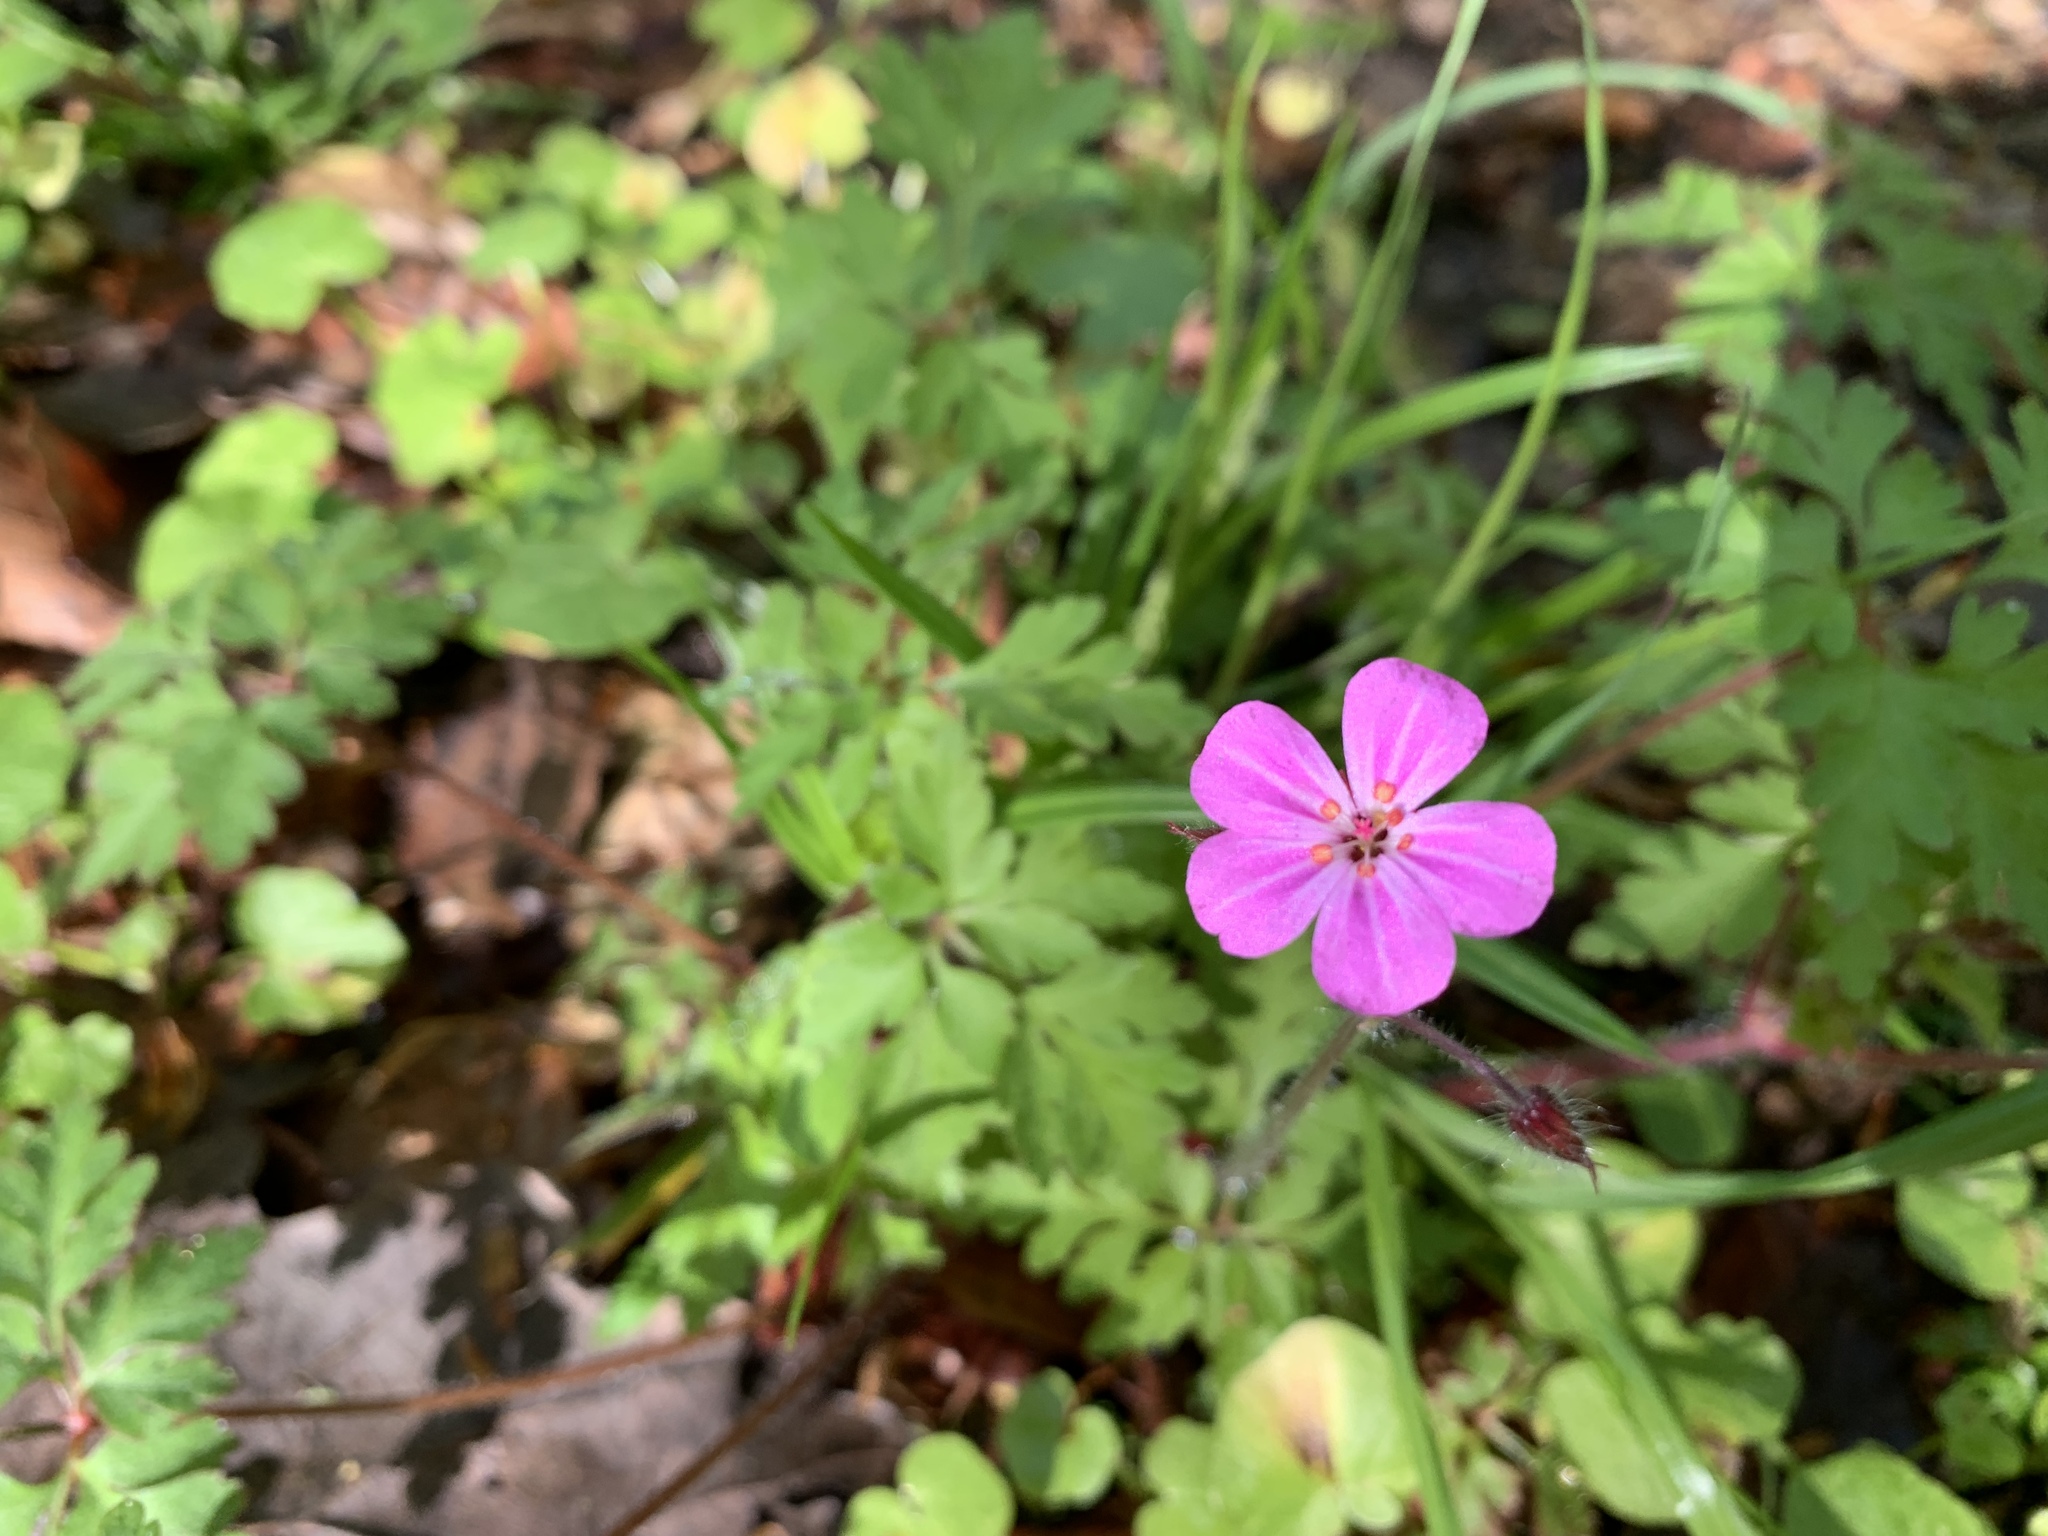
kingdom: Plantae
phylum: Tracheophyta
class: Magnoliopsida
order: Geraniales
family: Geraniaceae
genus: Geranium
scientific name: Geranium robertianum
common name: Herb-robert
